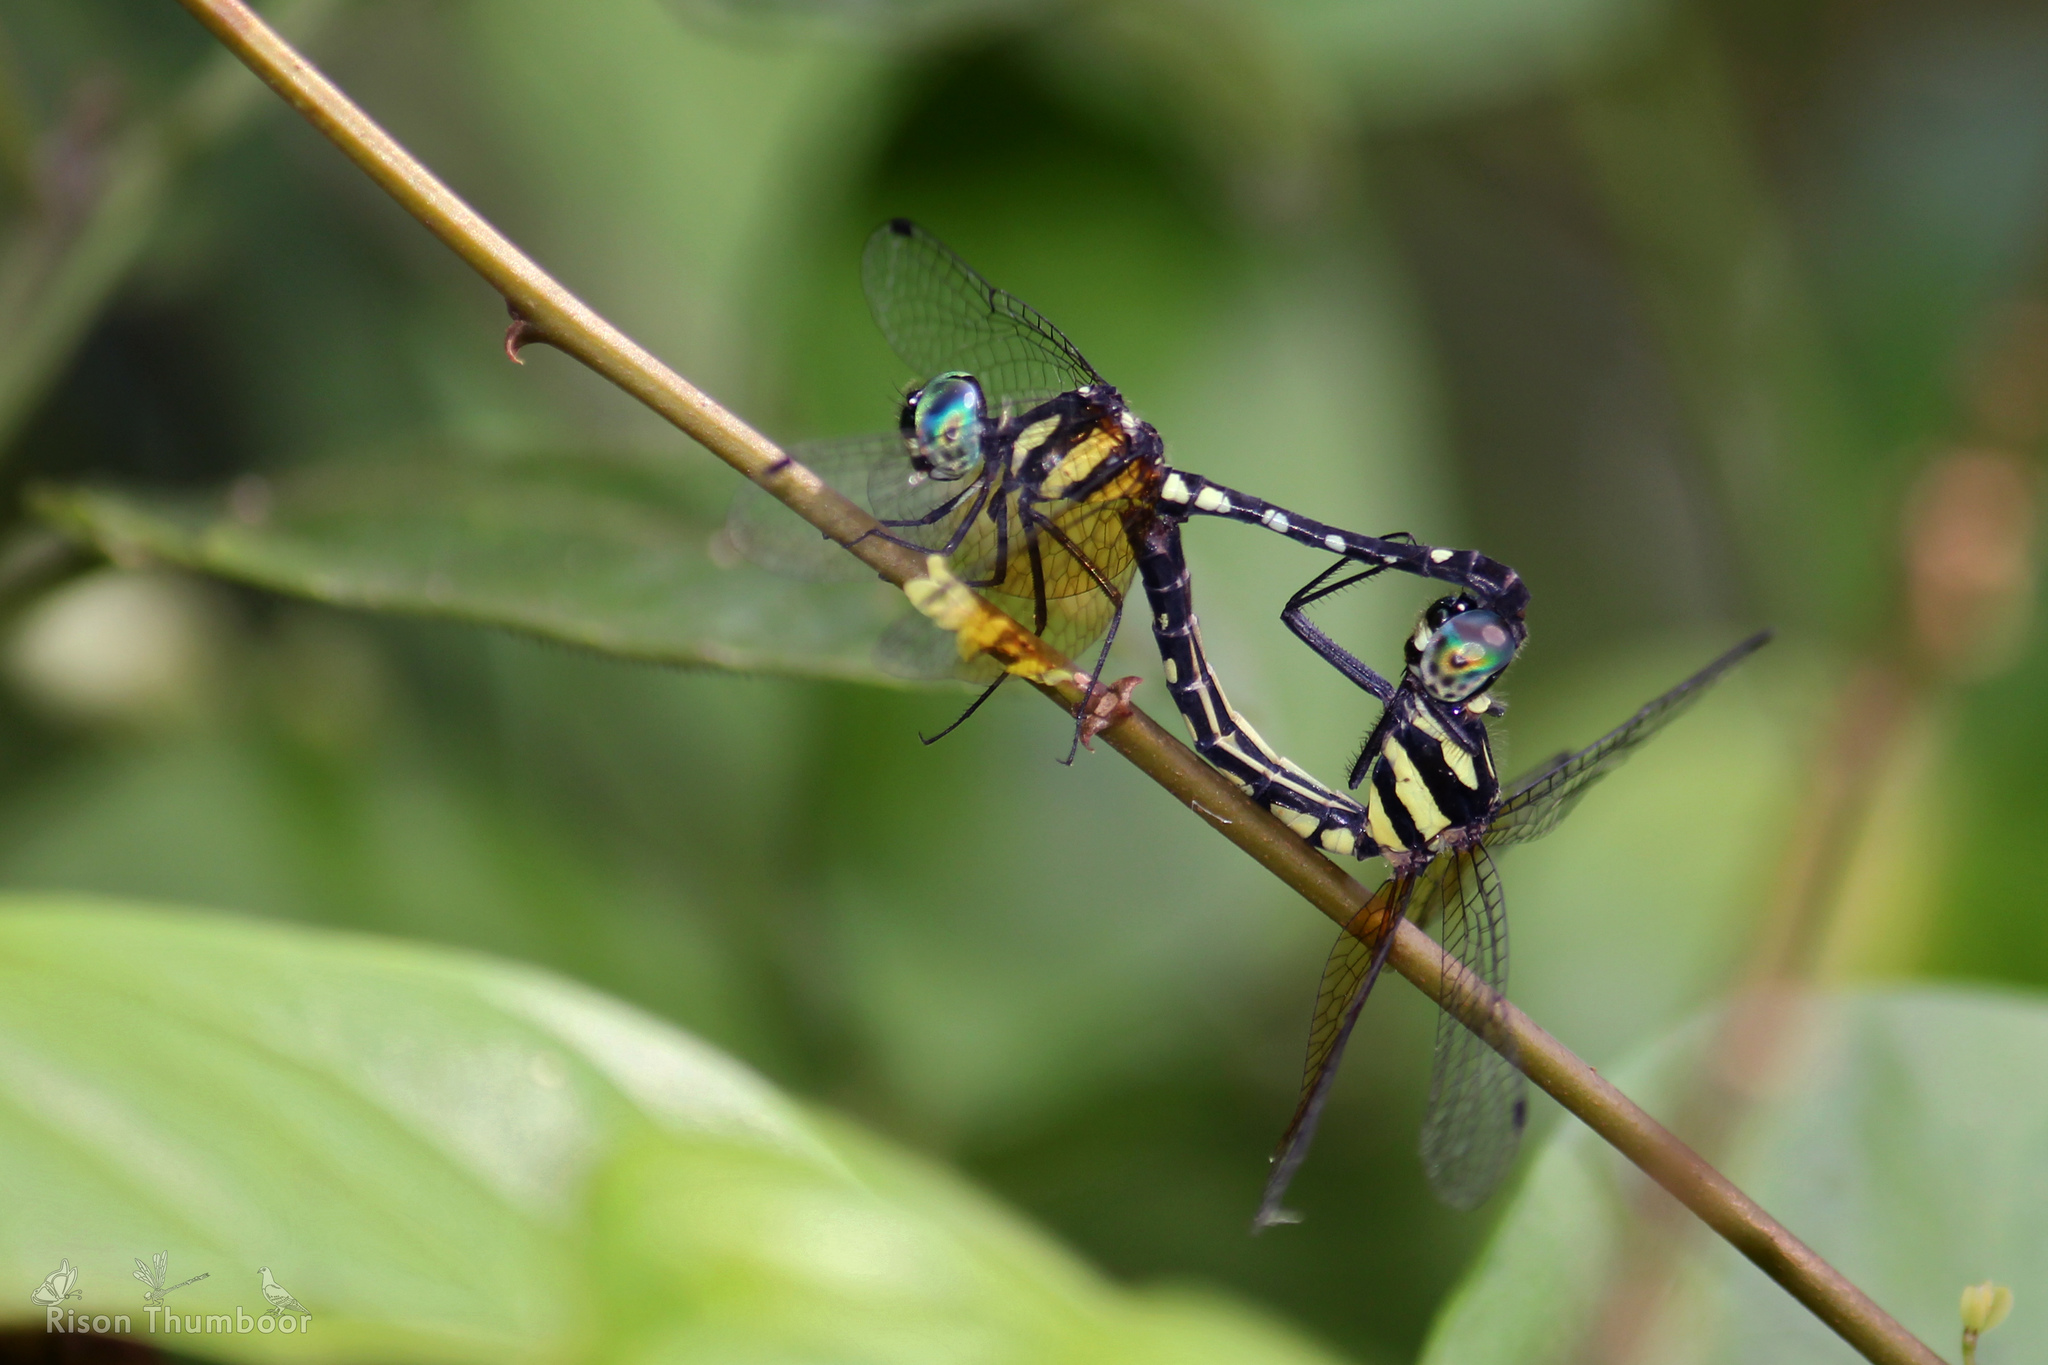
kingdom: Animalia
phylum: Arthropoda
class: Insecta
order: Odonata
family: Libellulidae
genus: Tetrathemis
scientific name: Tetrathemis platyptera
